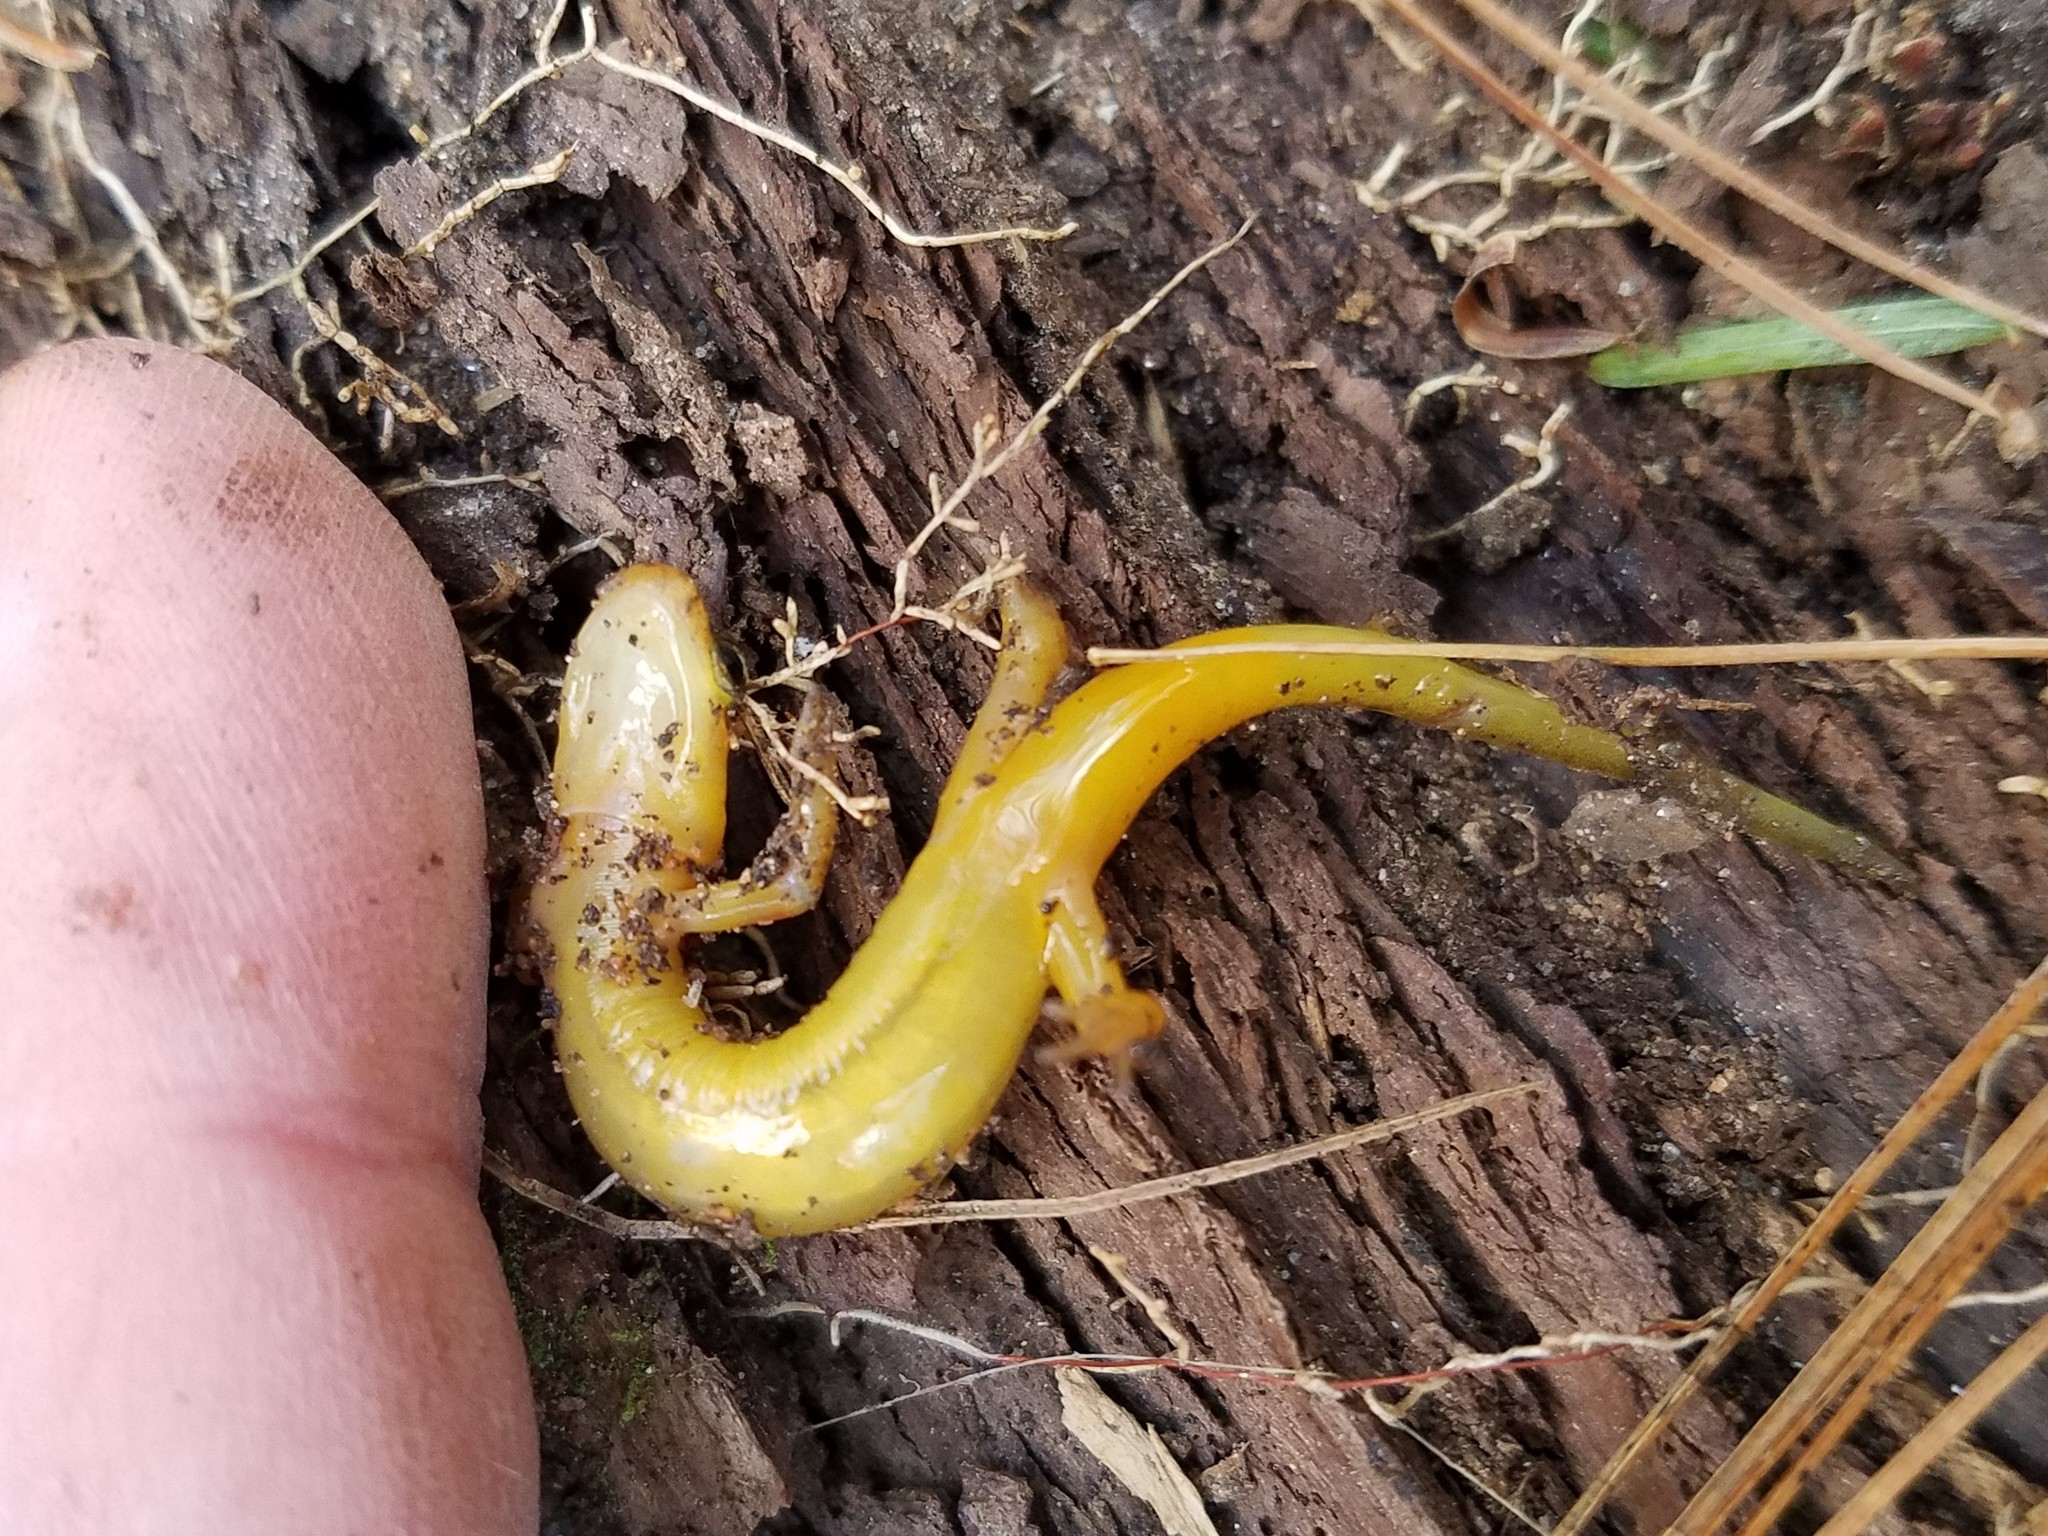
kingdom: Animalia
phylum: Chordata
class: Amphibia
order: Caudata
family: Plethodontidae
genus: Eurycea
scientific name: Eurycea wilderae
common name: Blue ridge two-lined salamander
